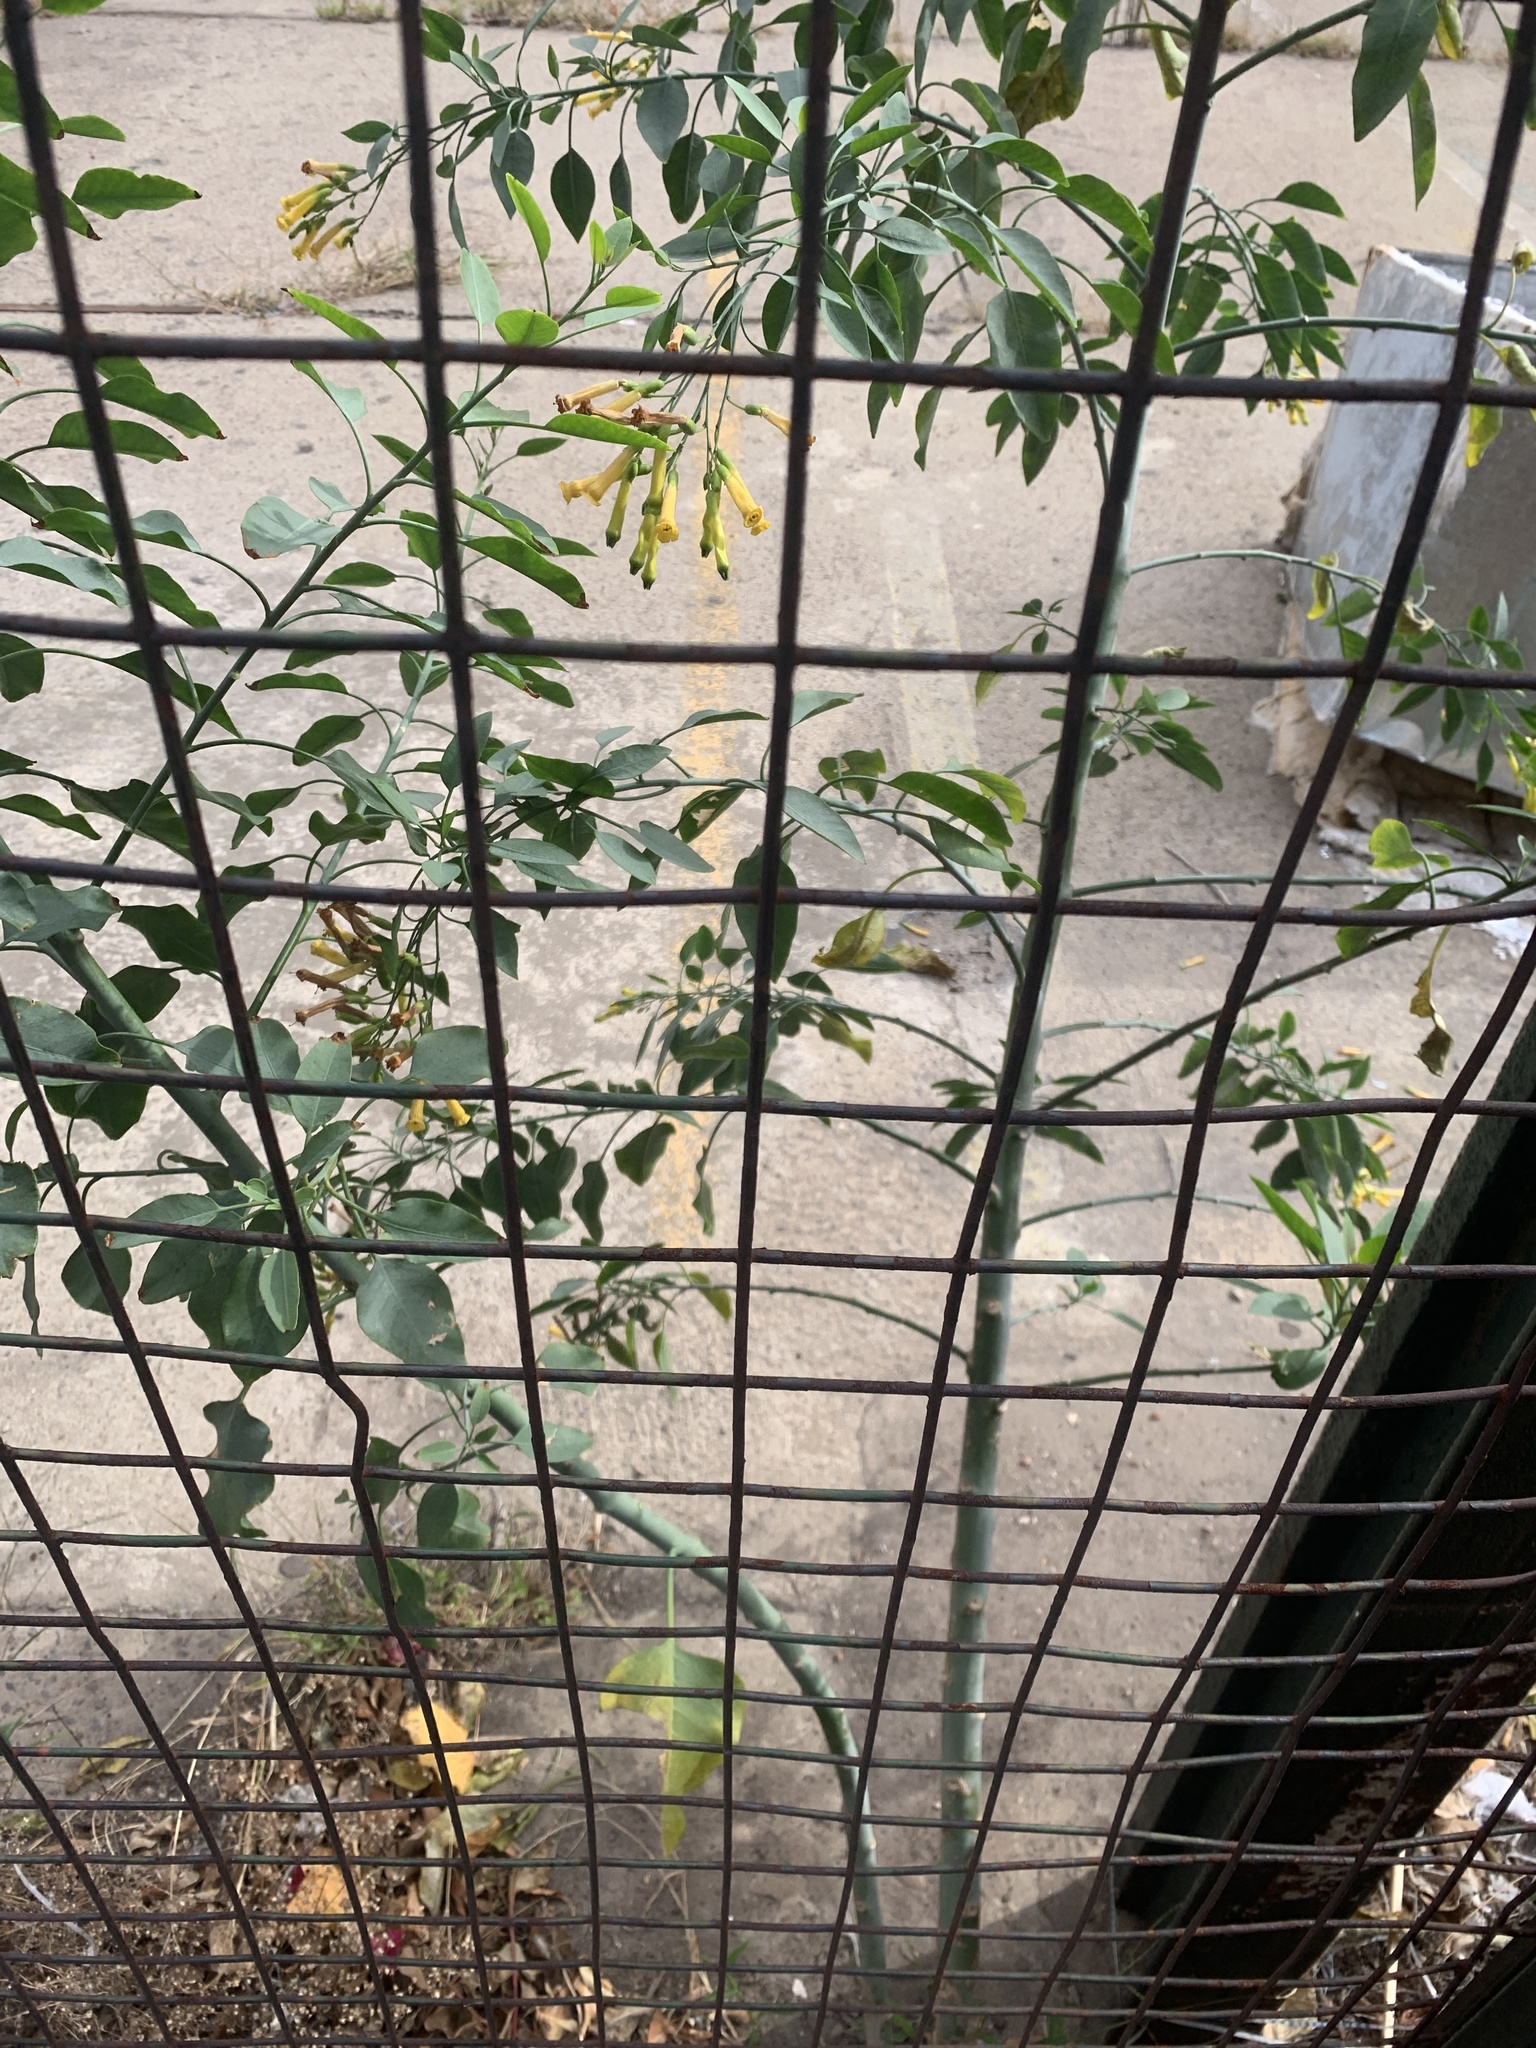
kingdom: Plantae
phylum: Tracheophyta
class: Magnoliopsida
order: Solanales
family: Solanaceae
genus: Nicotiana
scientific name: Nicotiana glauca
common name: Tree tobacco
